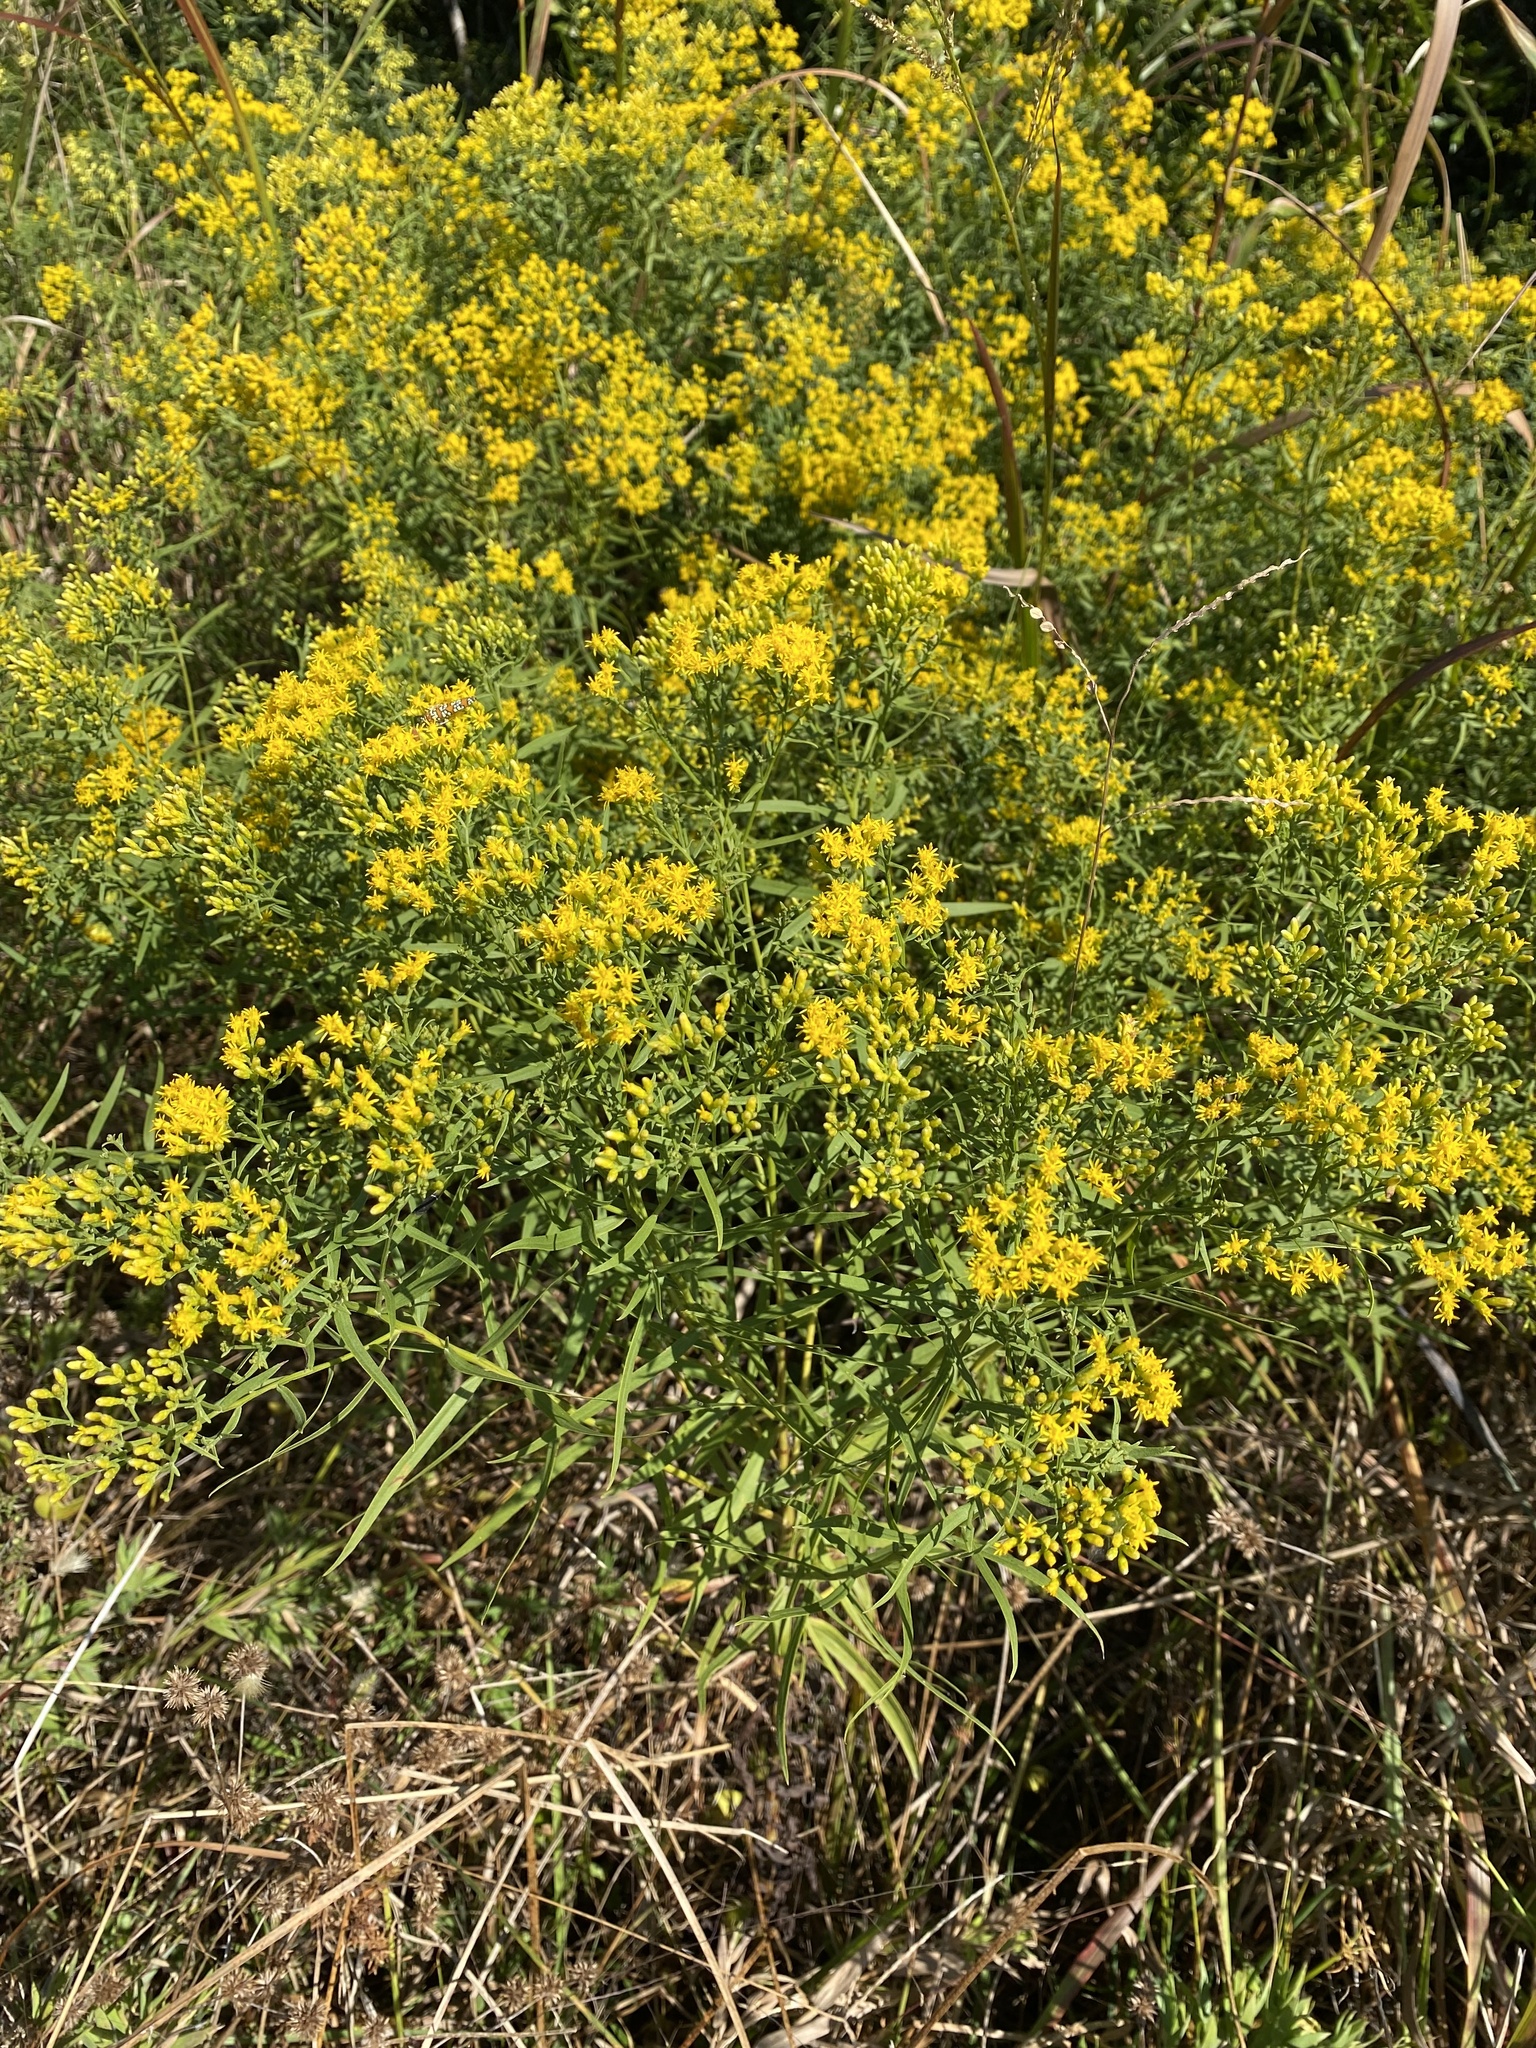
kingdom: Plantae
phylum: Tracheophyta
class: Magnoliopsida
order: Asterales
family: Asteraceae
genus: Euthamia
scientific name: Euthamia caroliniana
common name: Coastal plain goldentop
